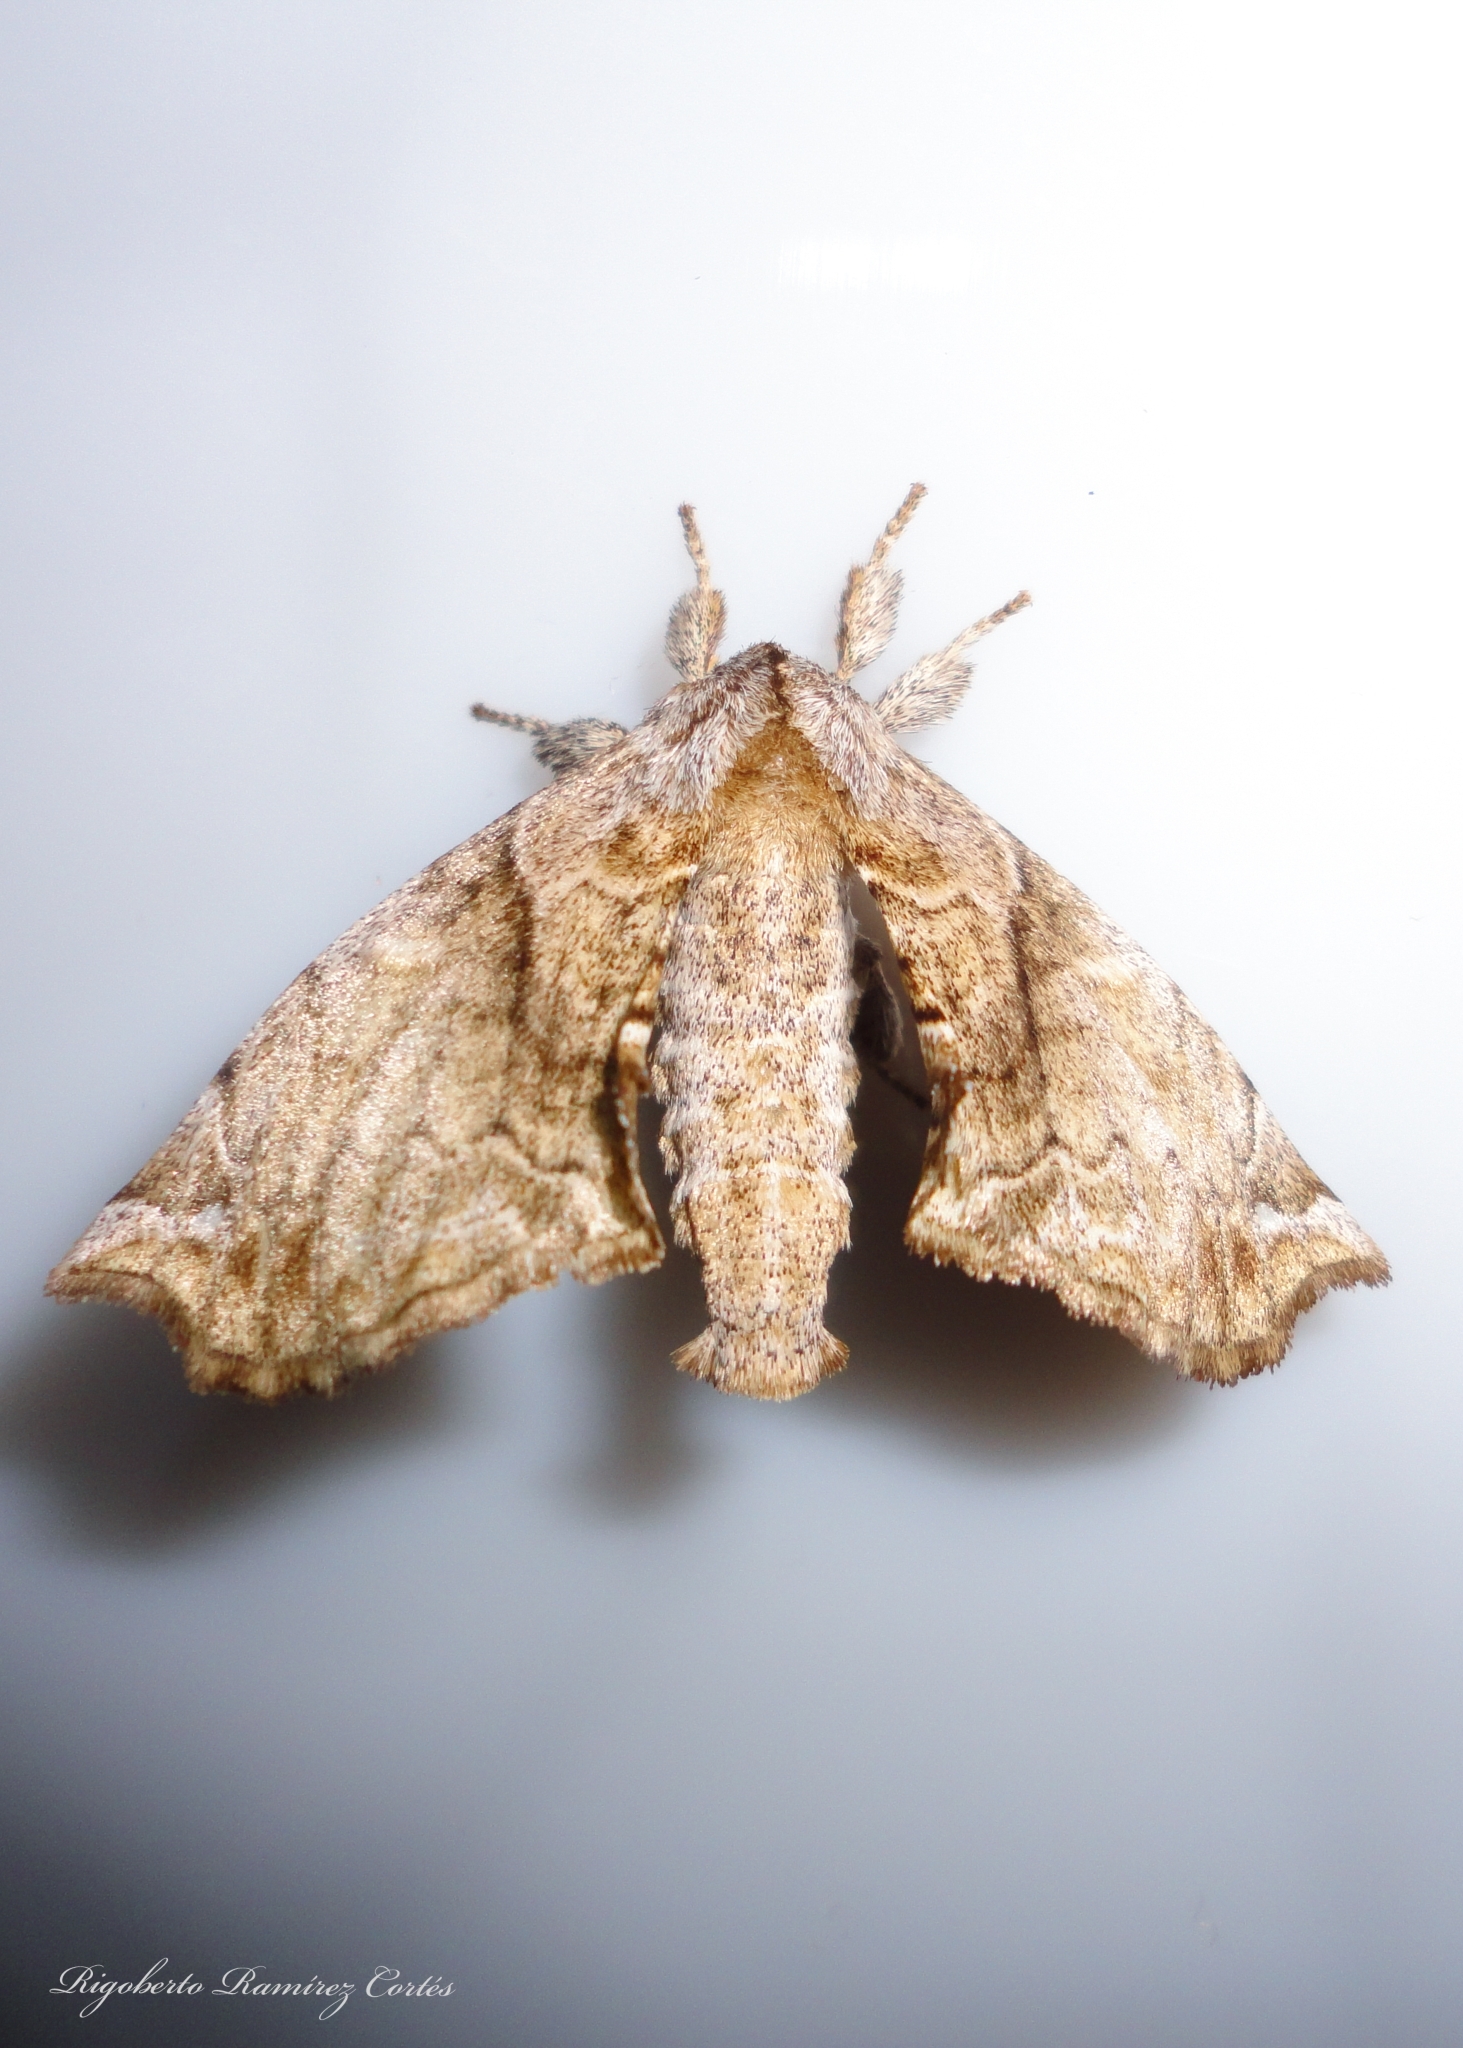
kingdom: Animalia
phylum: Arthropoda
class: Insecta
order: Lepidoptera
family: Apatelodidae
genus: Hygrochroa
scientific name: Hygrochroa
